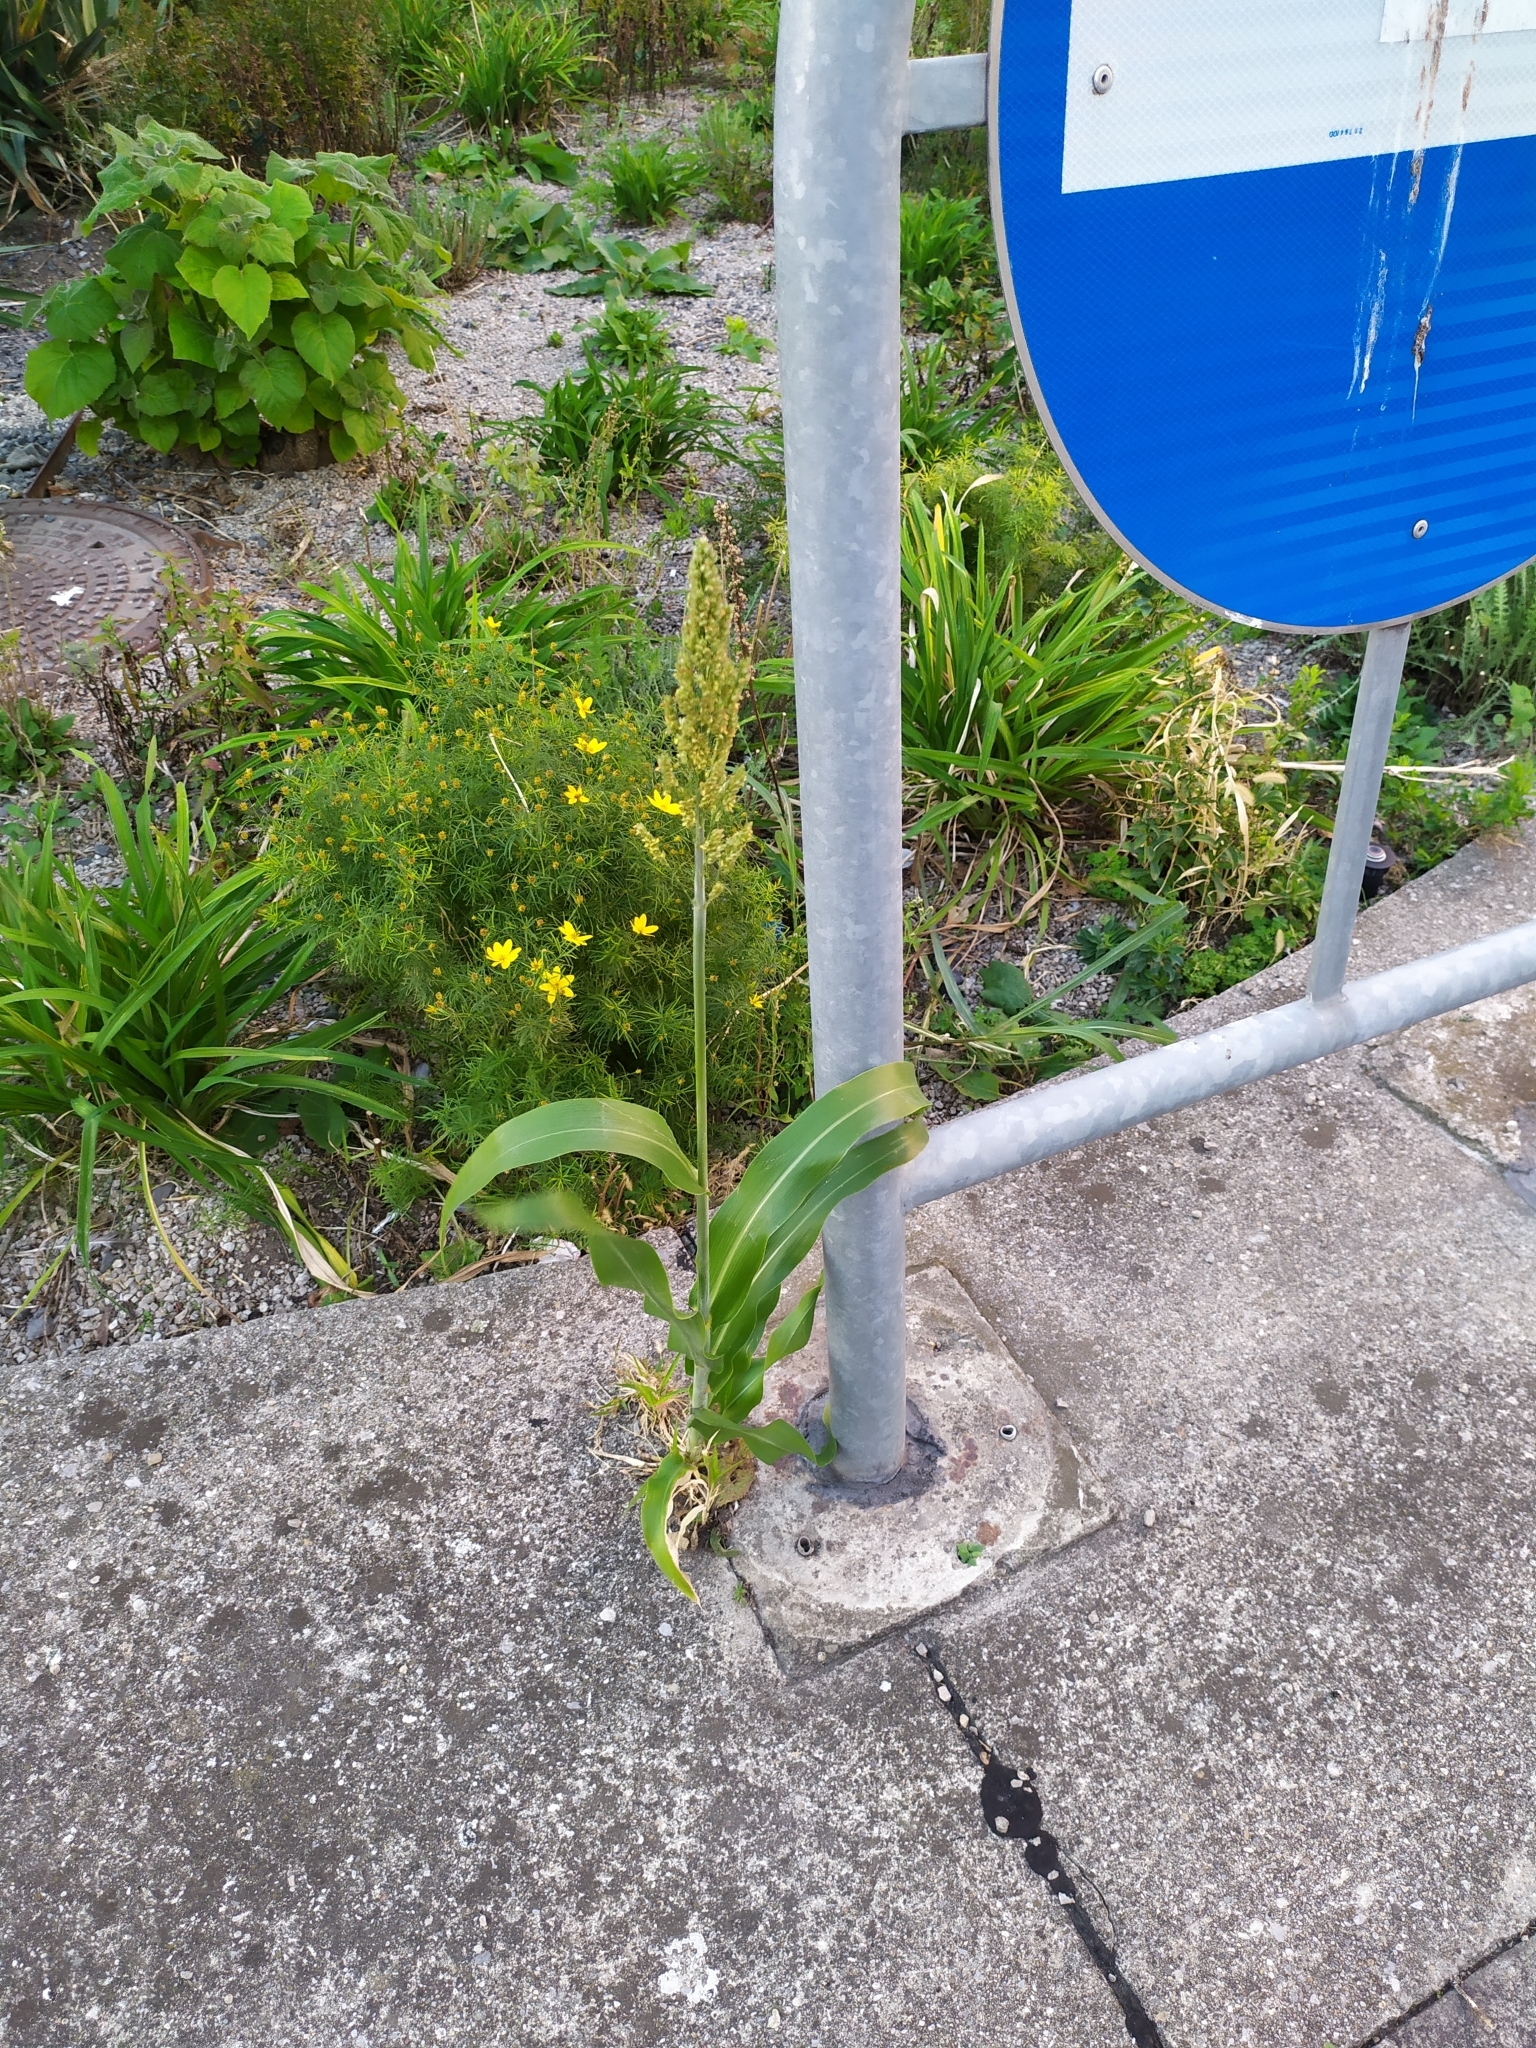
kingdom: Plantae
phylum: Tracheophyta
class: Liliopsida
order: Poales
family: Poaceae
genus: Sorghum
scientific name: Sorghum bicolor
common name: Sorghum
